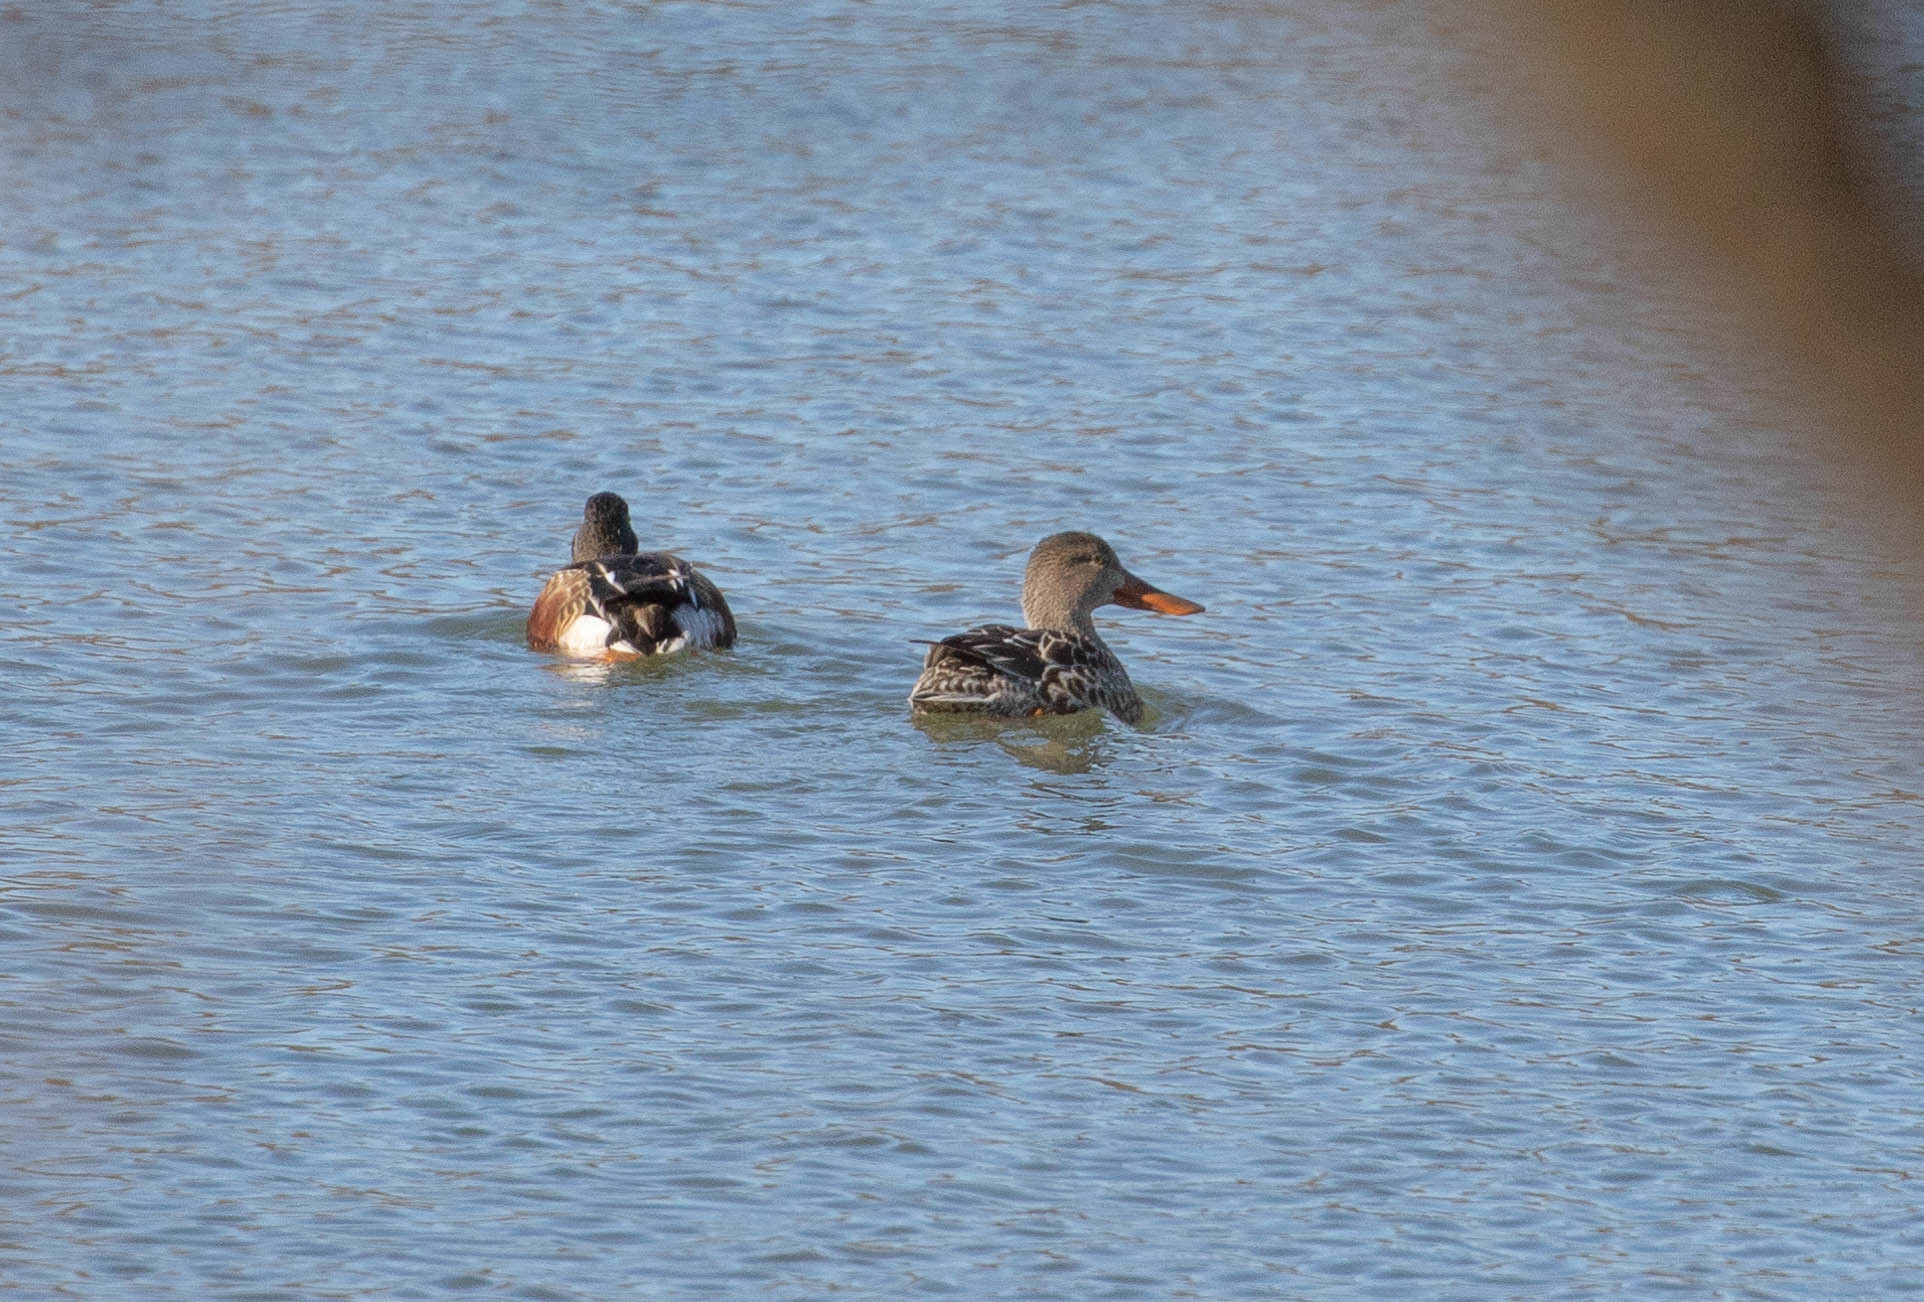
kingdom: Animalia
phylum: Chordata
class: Aves
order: Anseriformes
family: Anatidae
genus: Spatula
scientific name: Spatula clypeata
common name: Northern shoveler
